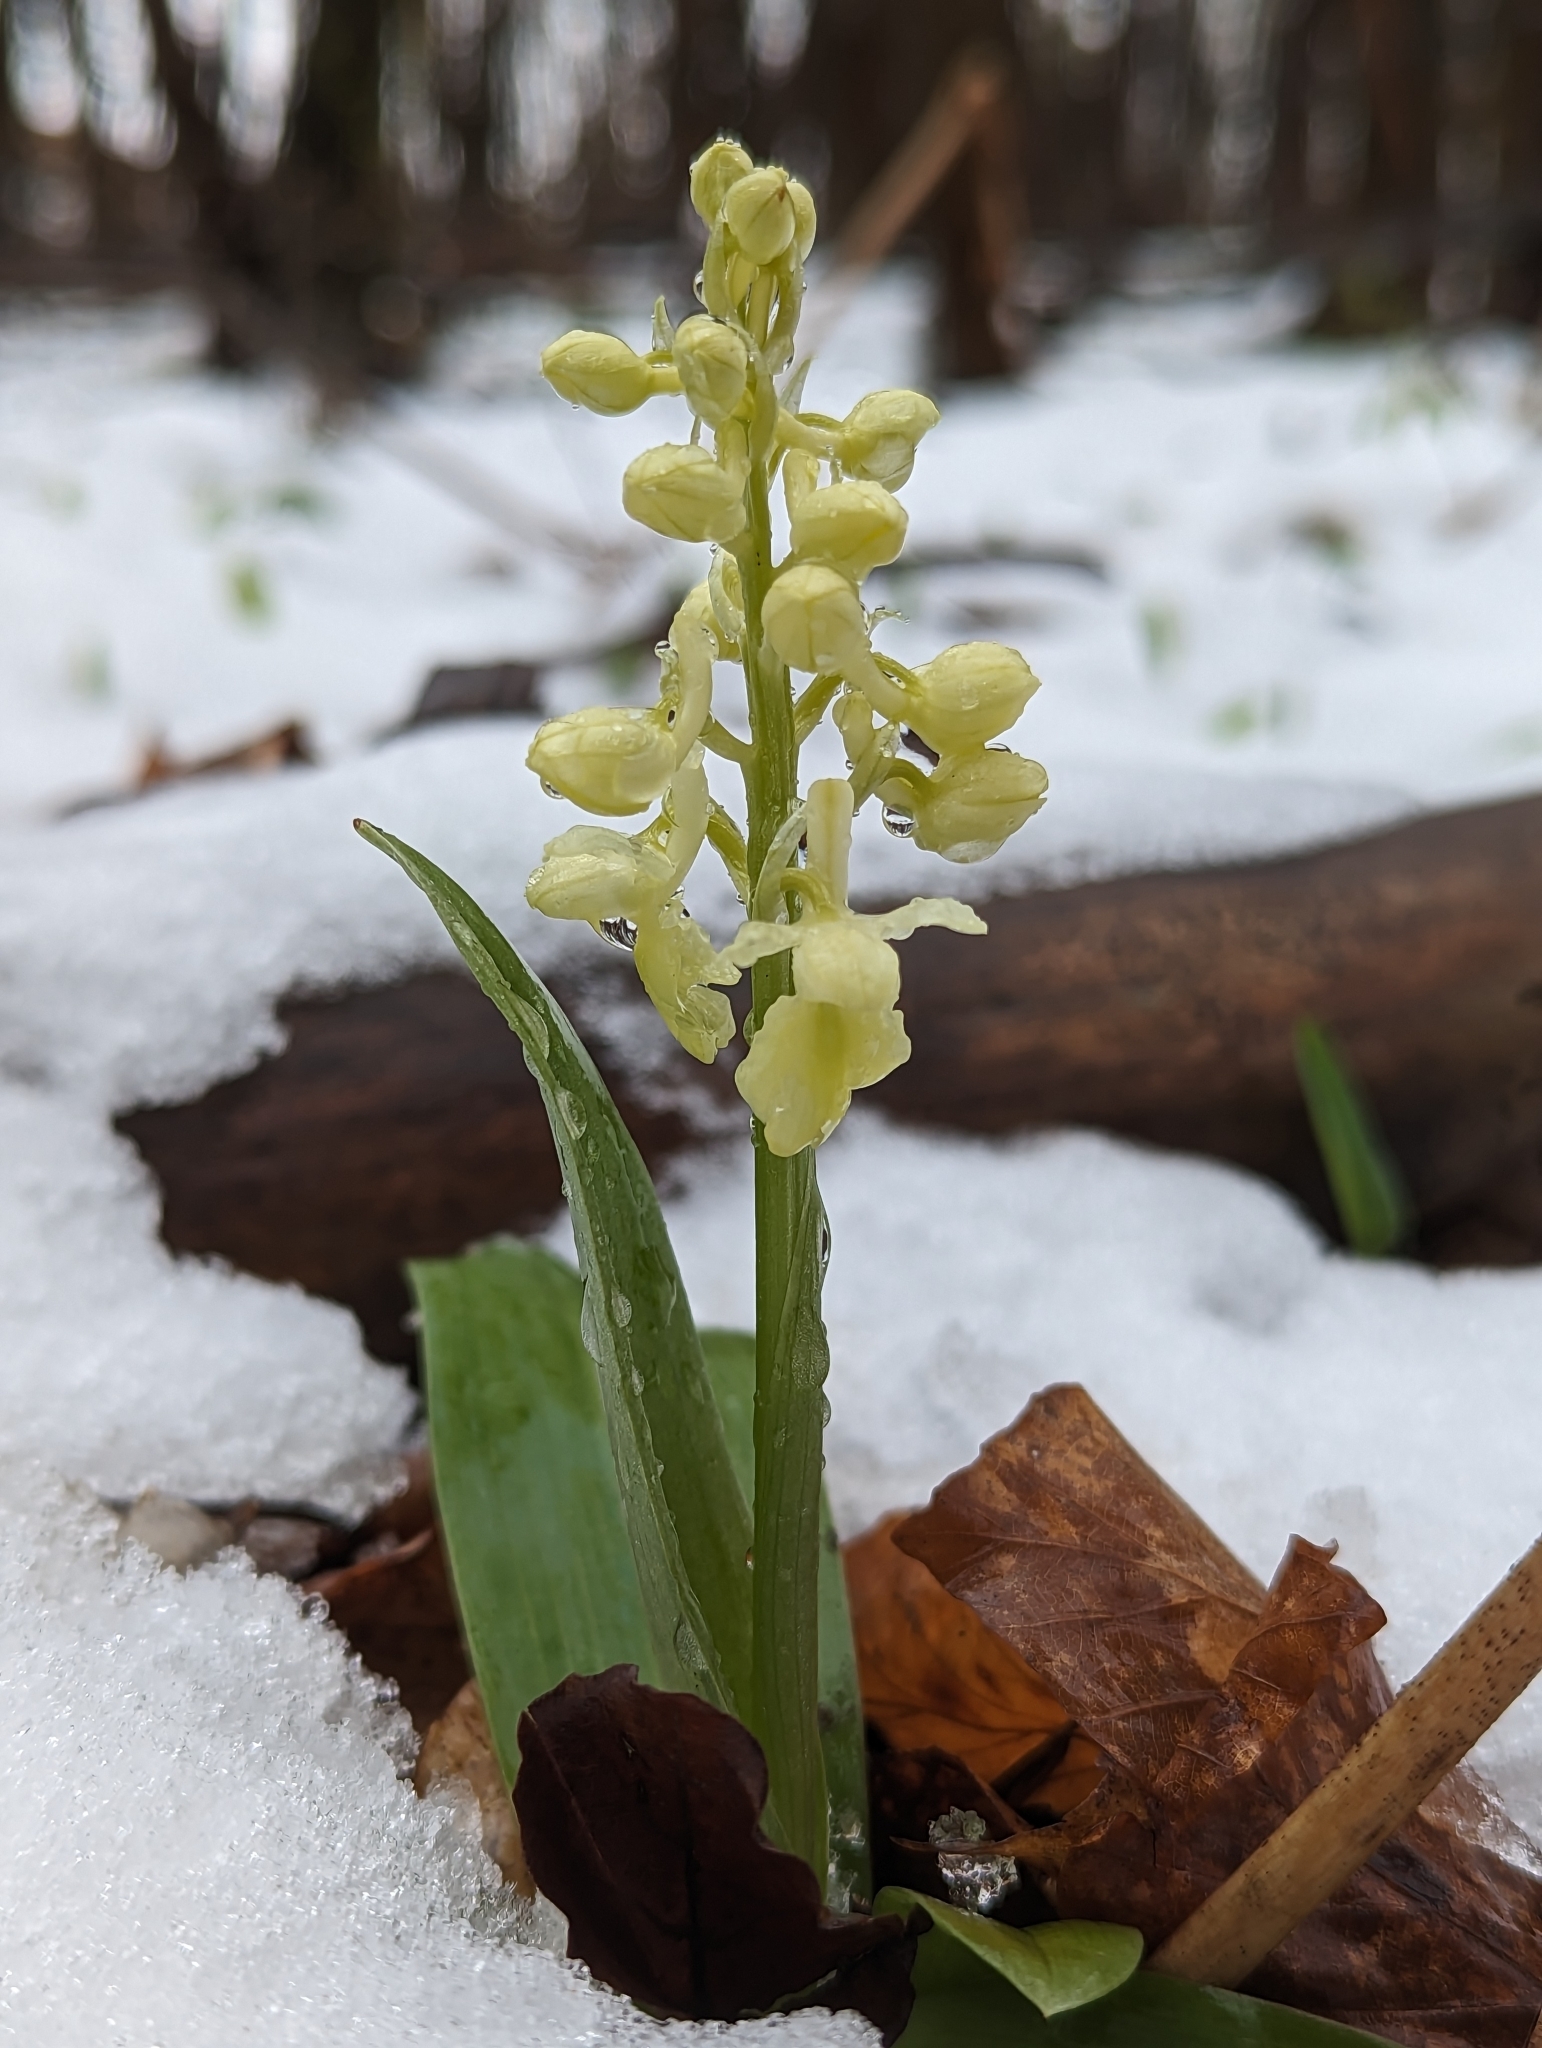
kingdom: Plantae
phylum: Tracheophyta
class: Liliopsida
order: Asparagales
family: Orchidaceae
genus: Orchis
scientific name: Orchis pallens
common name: Pale-flowered orchid
